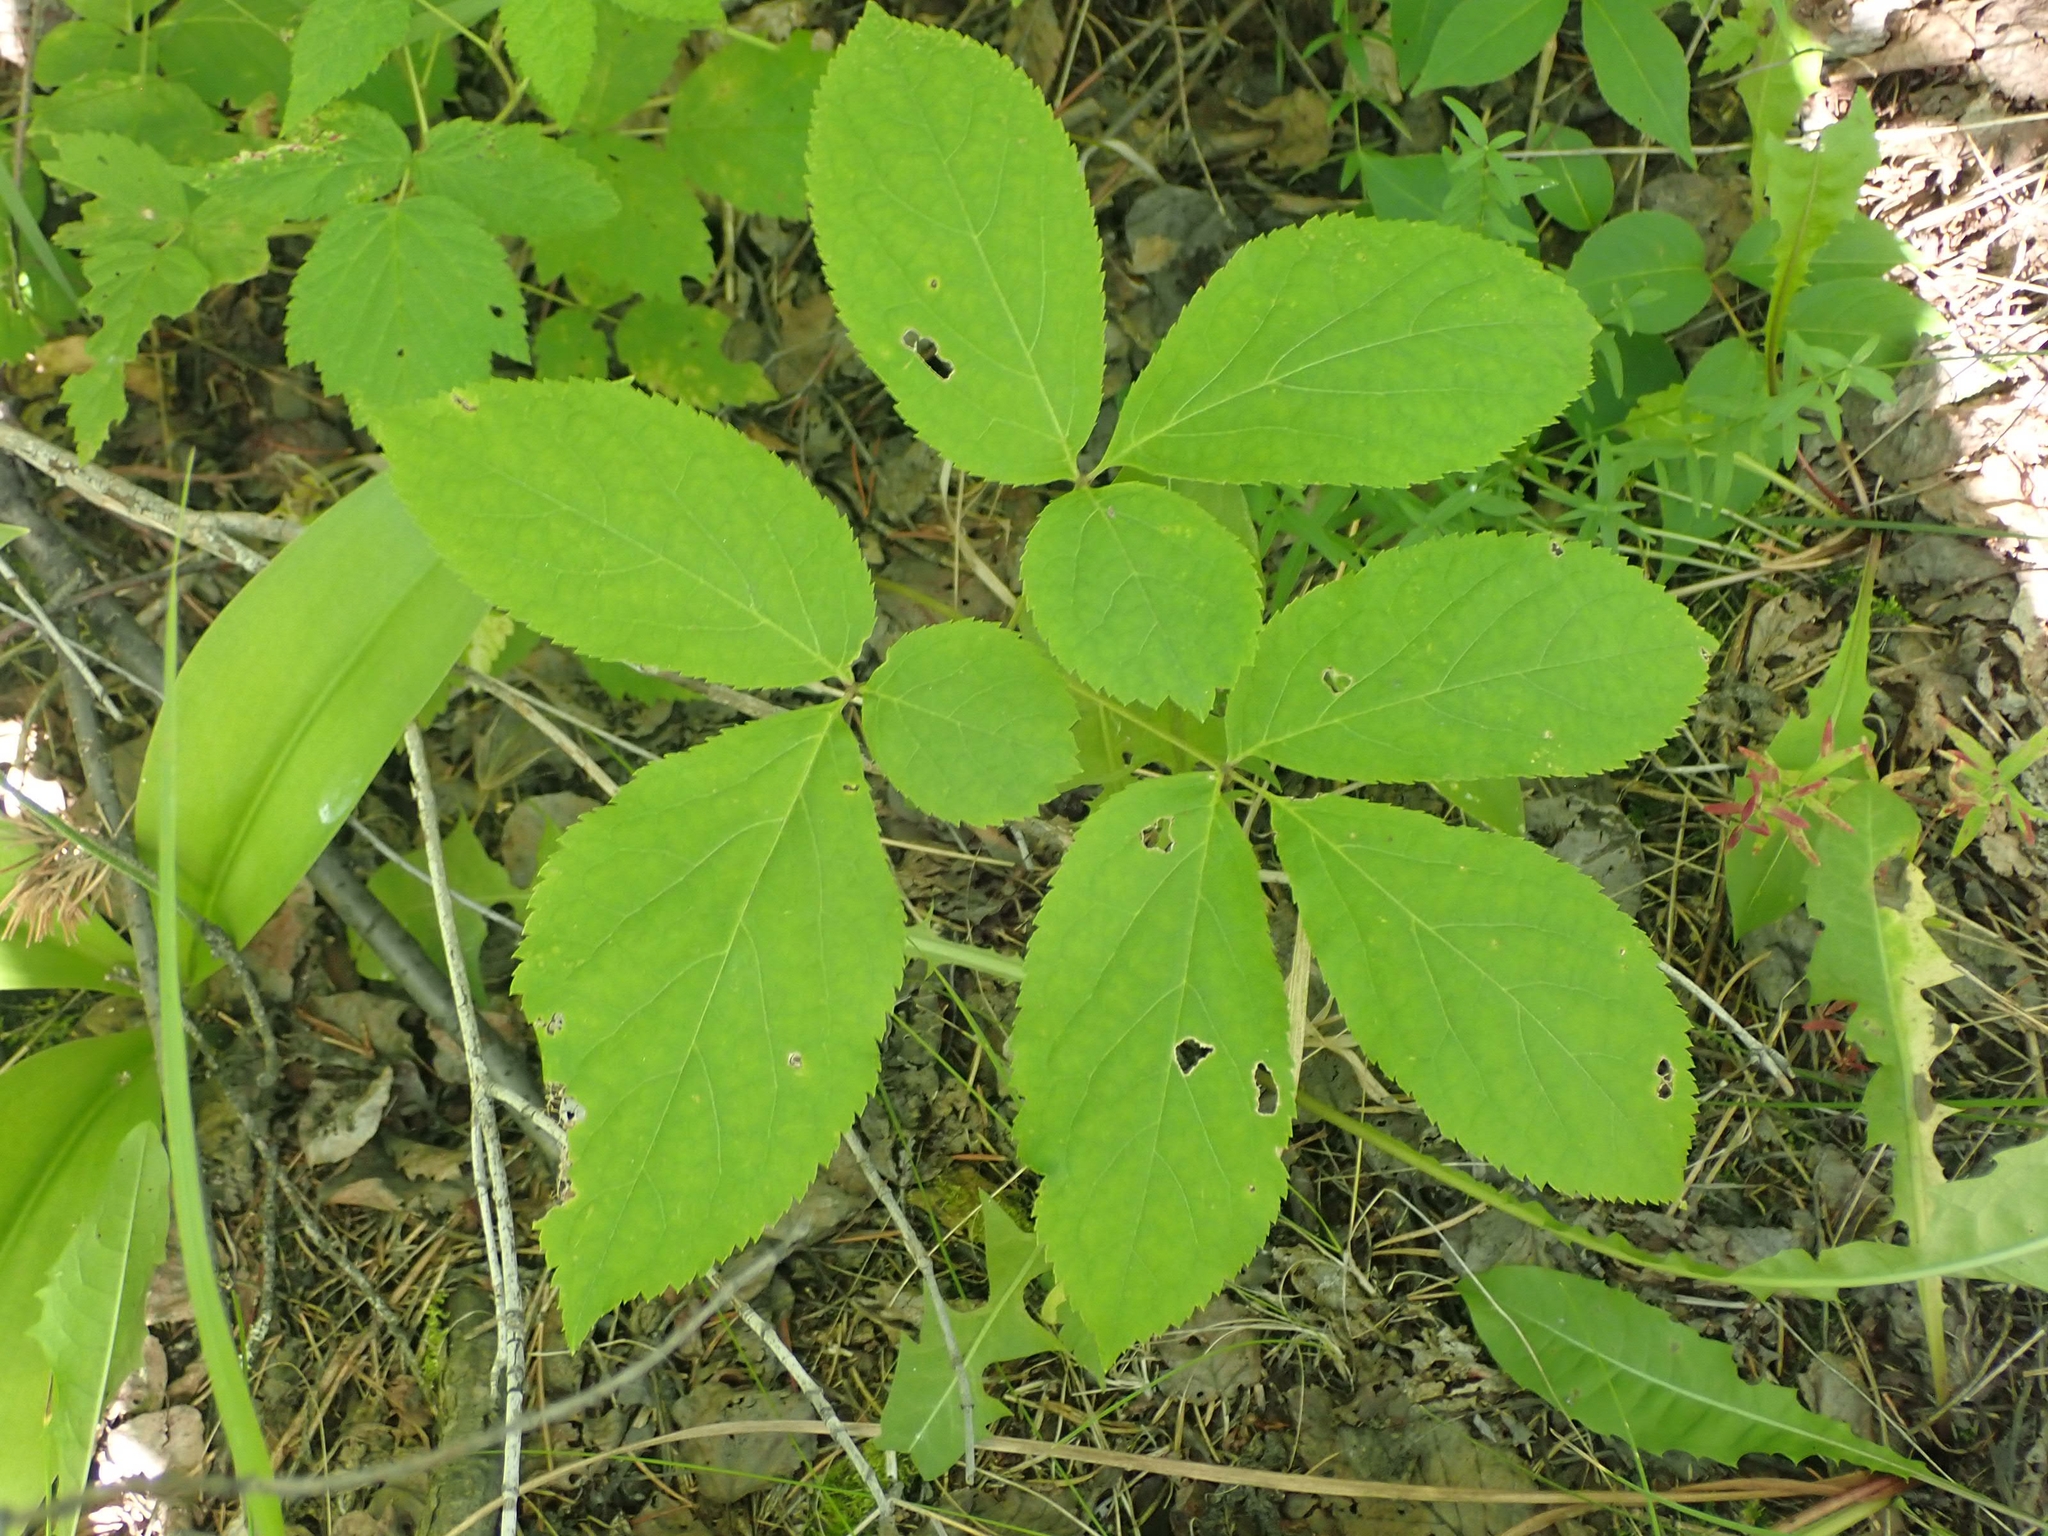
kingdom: Plantae
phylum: Tracheophyta
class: Magnoliopsida
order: Apiales
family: Araliaceae
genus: Aralia
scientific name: Aralia nudicaulis
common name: Wild sarsaparilla
